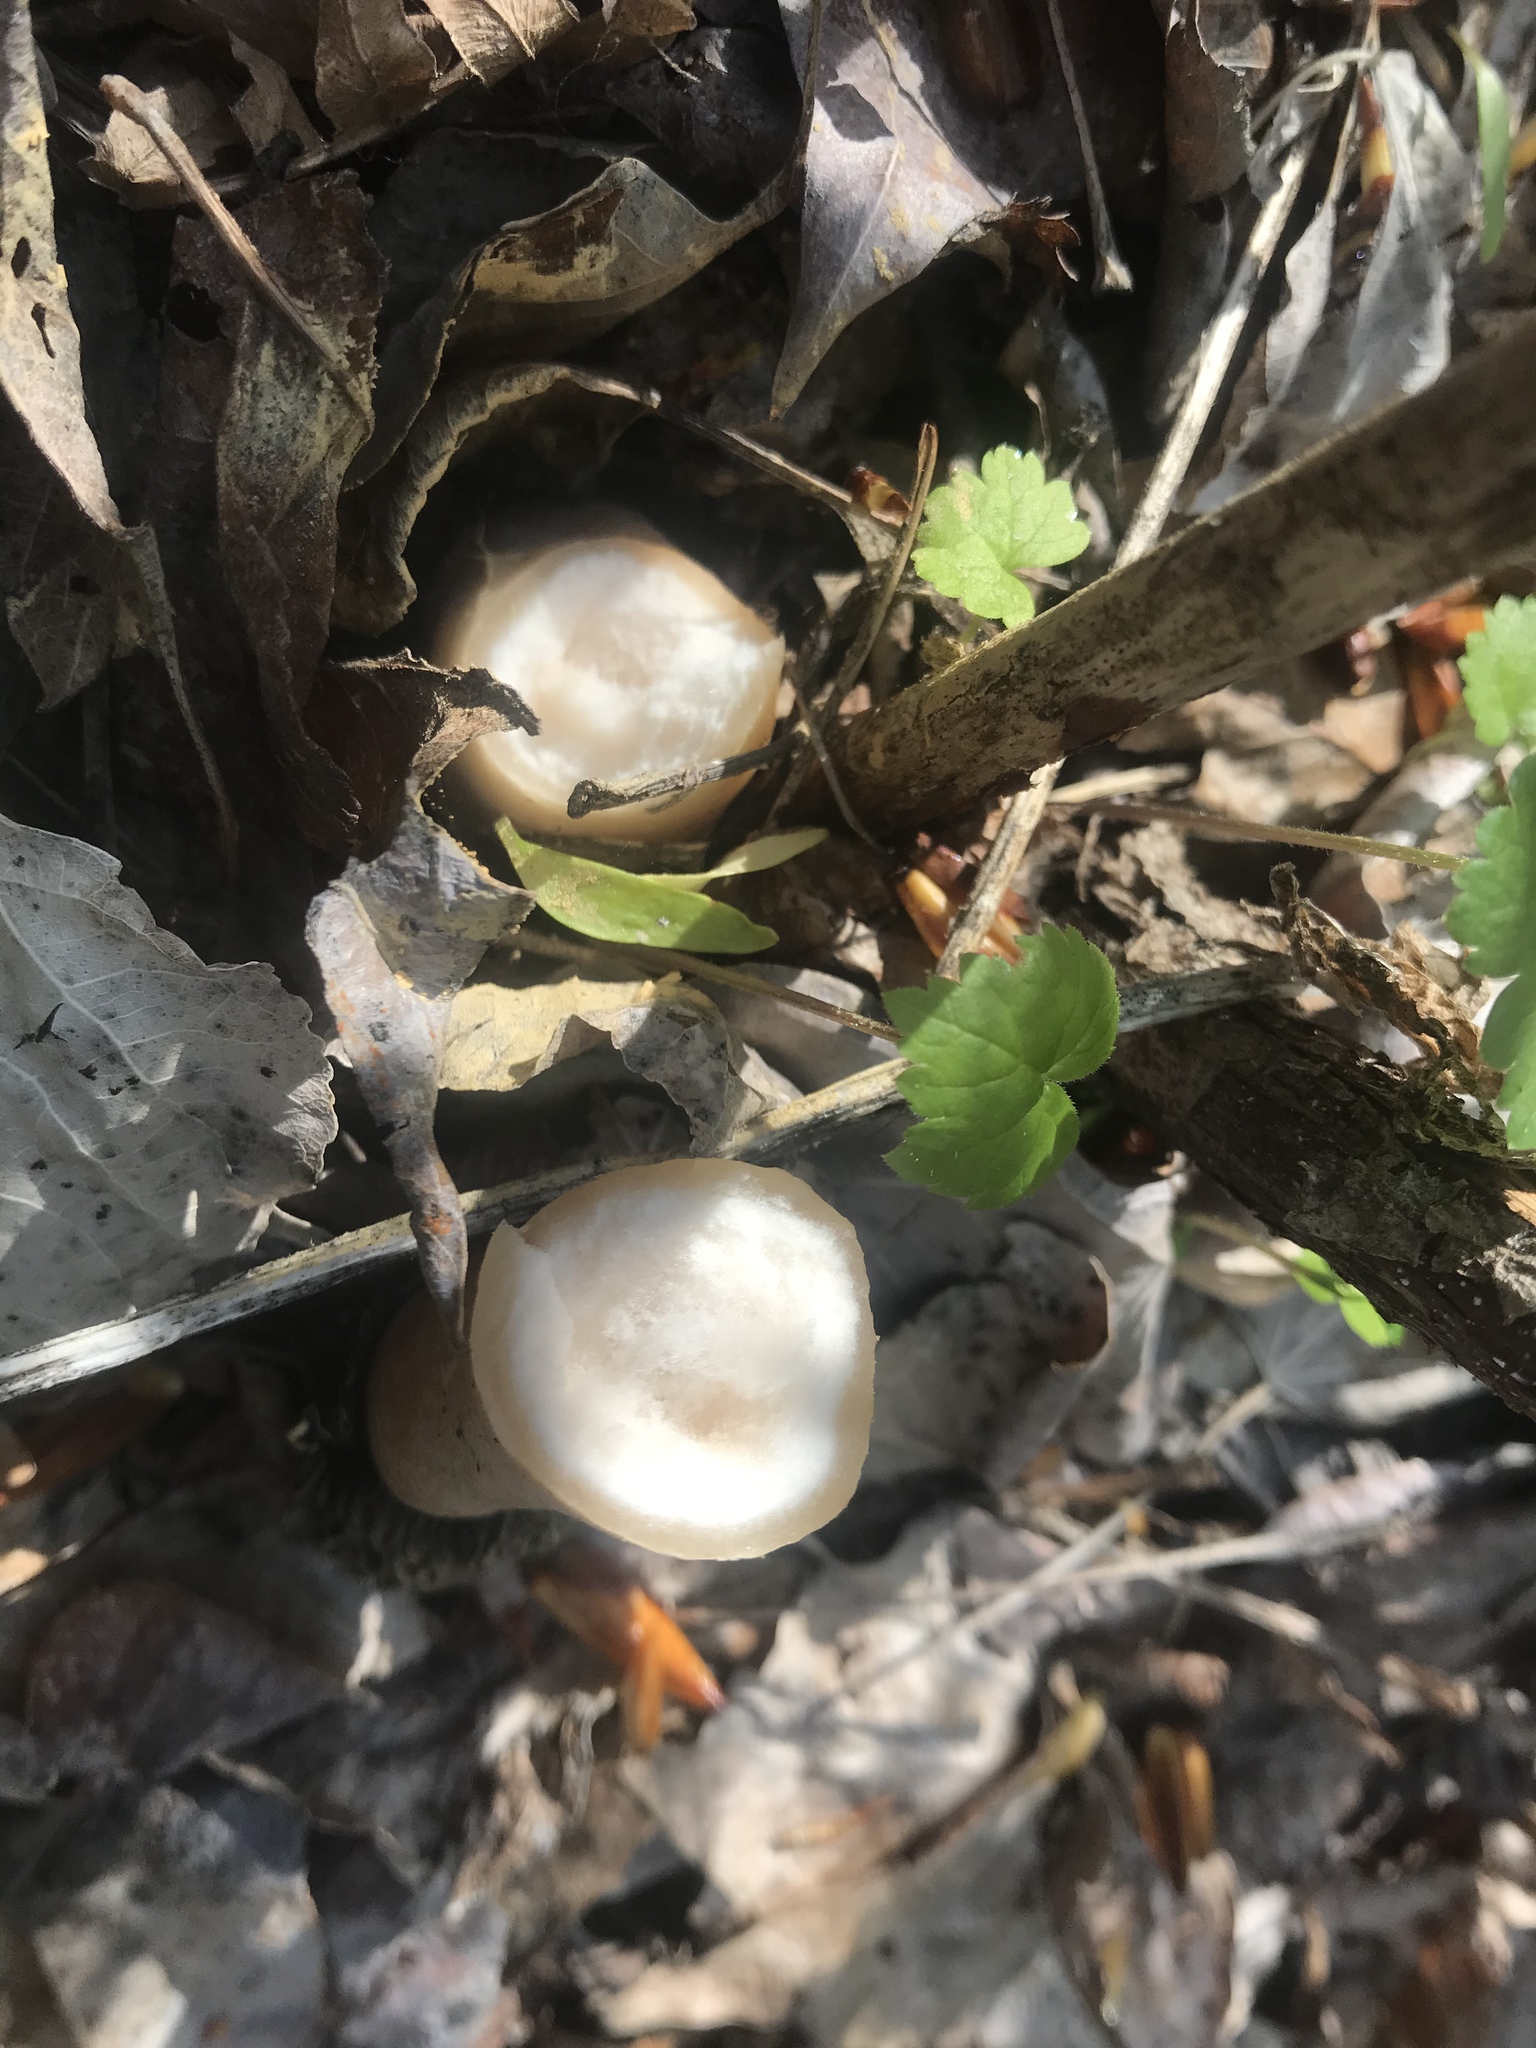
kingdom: Fungi
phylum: Ascomycota
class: Pezizomycetes
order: Pezizales
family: Morchellaceae
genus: Verpa
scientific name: Verpa bohemica
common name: Wrinkled thimble morel
